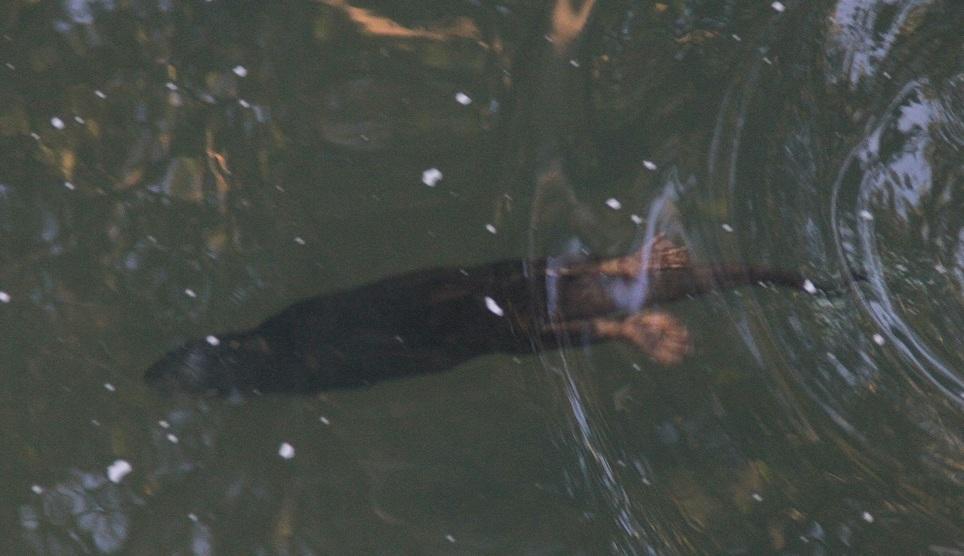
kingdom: Animalia
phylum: Chordata
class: Mammalia
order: Carnivora
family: Mustelidae
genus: Hydrictis
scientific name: Hydrictis maculicollis
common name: Spotted-necked otter
